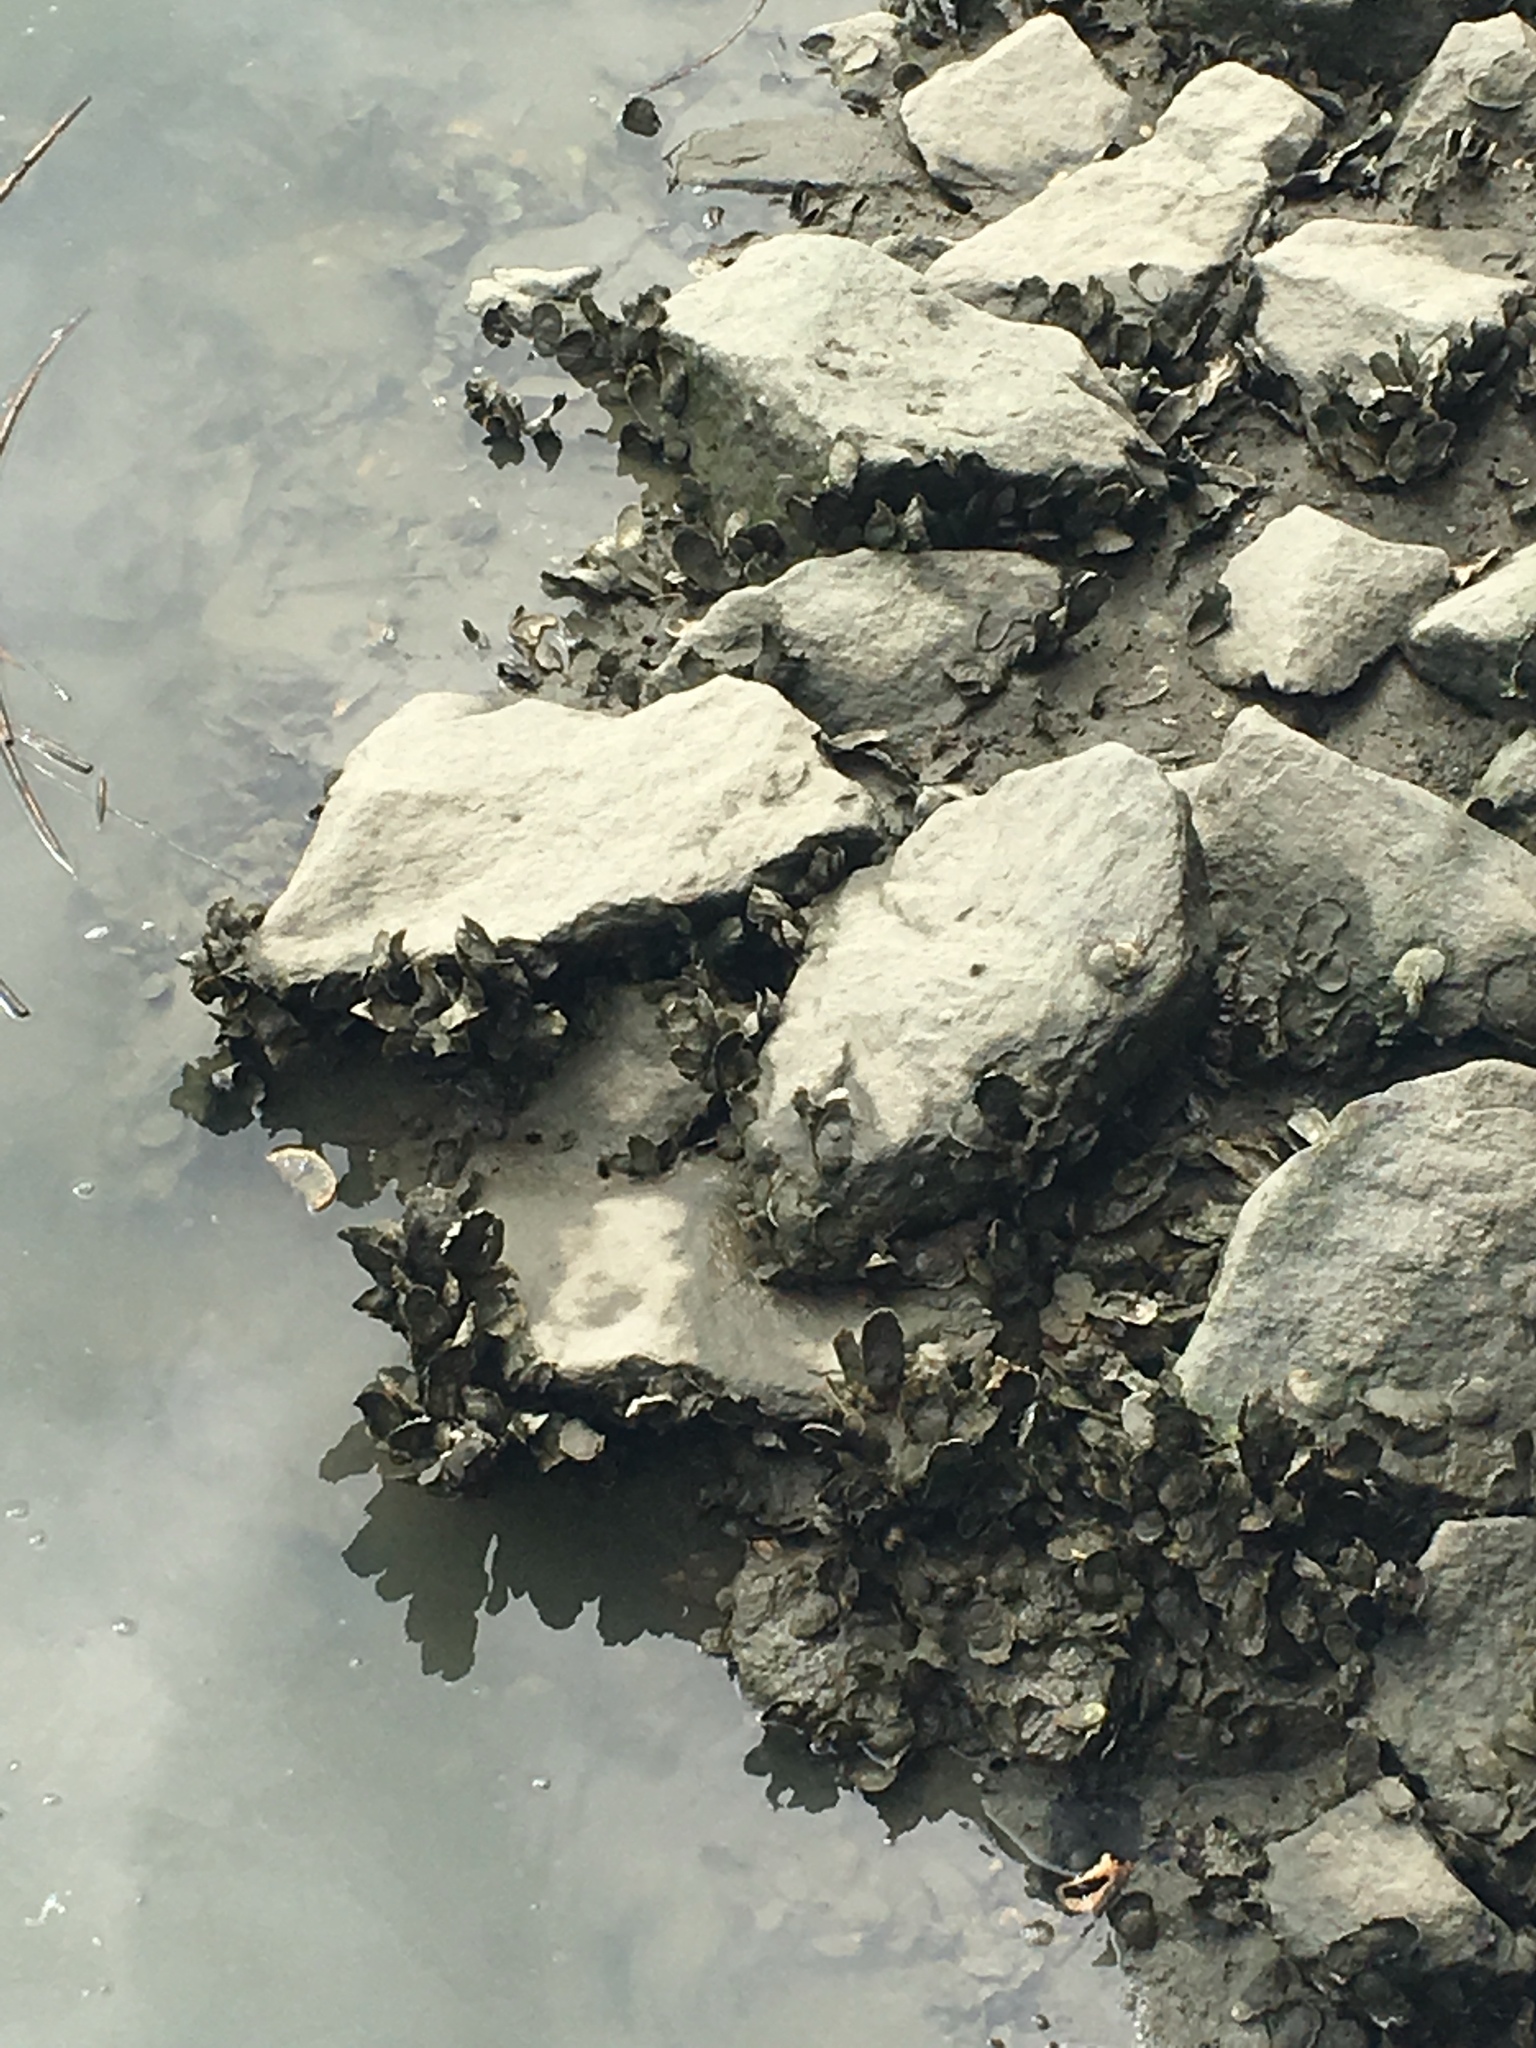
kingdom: Animalia
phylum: Mollusca
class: Bivalvia
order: Ostreida
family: Ostreidae
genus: Crassostrea
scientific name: Crassostrea virginica
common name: American oyster
